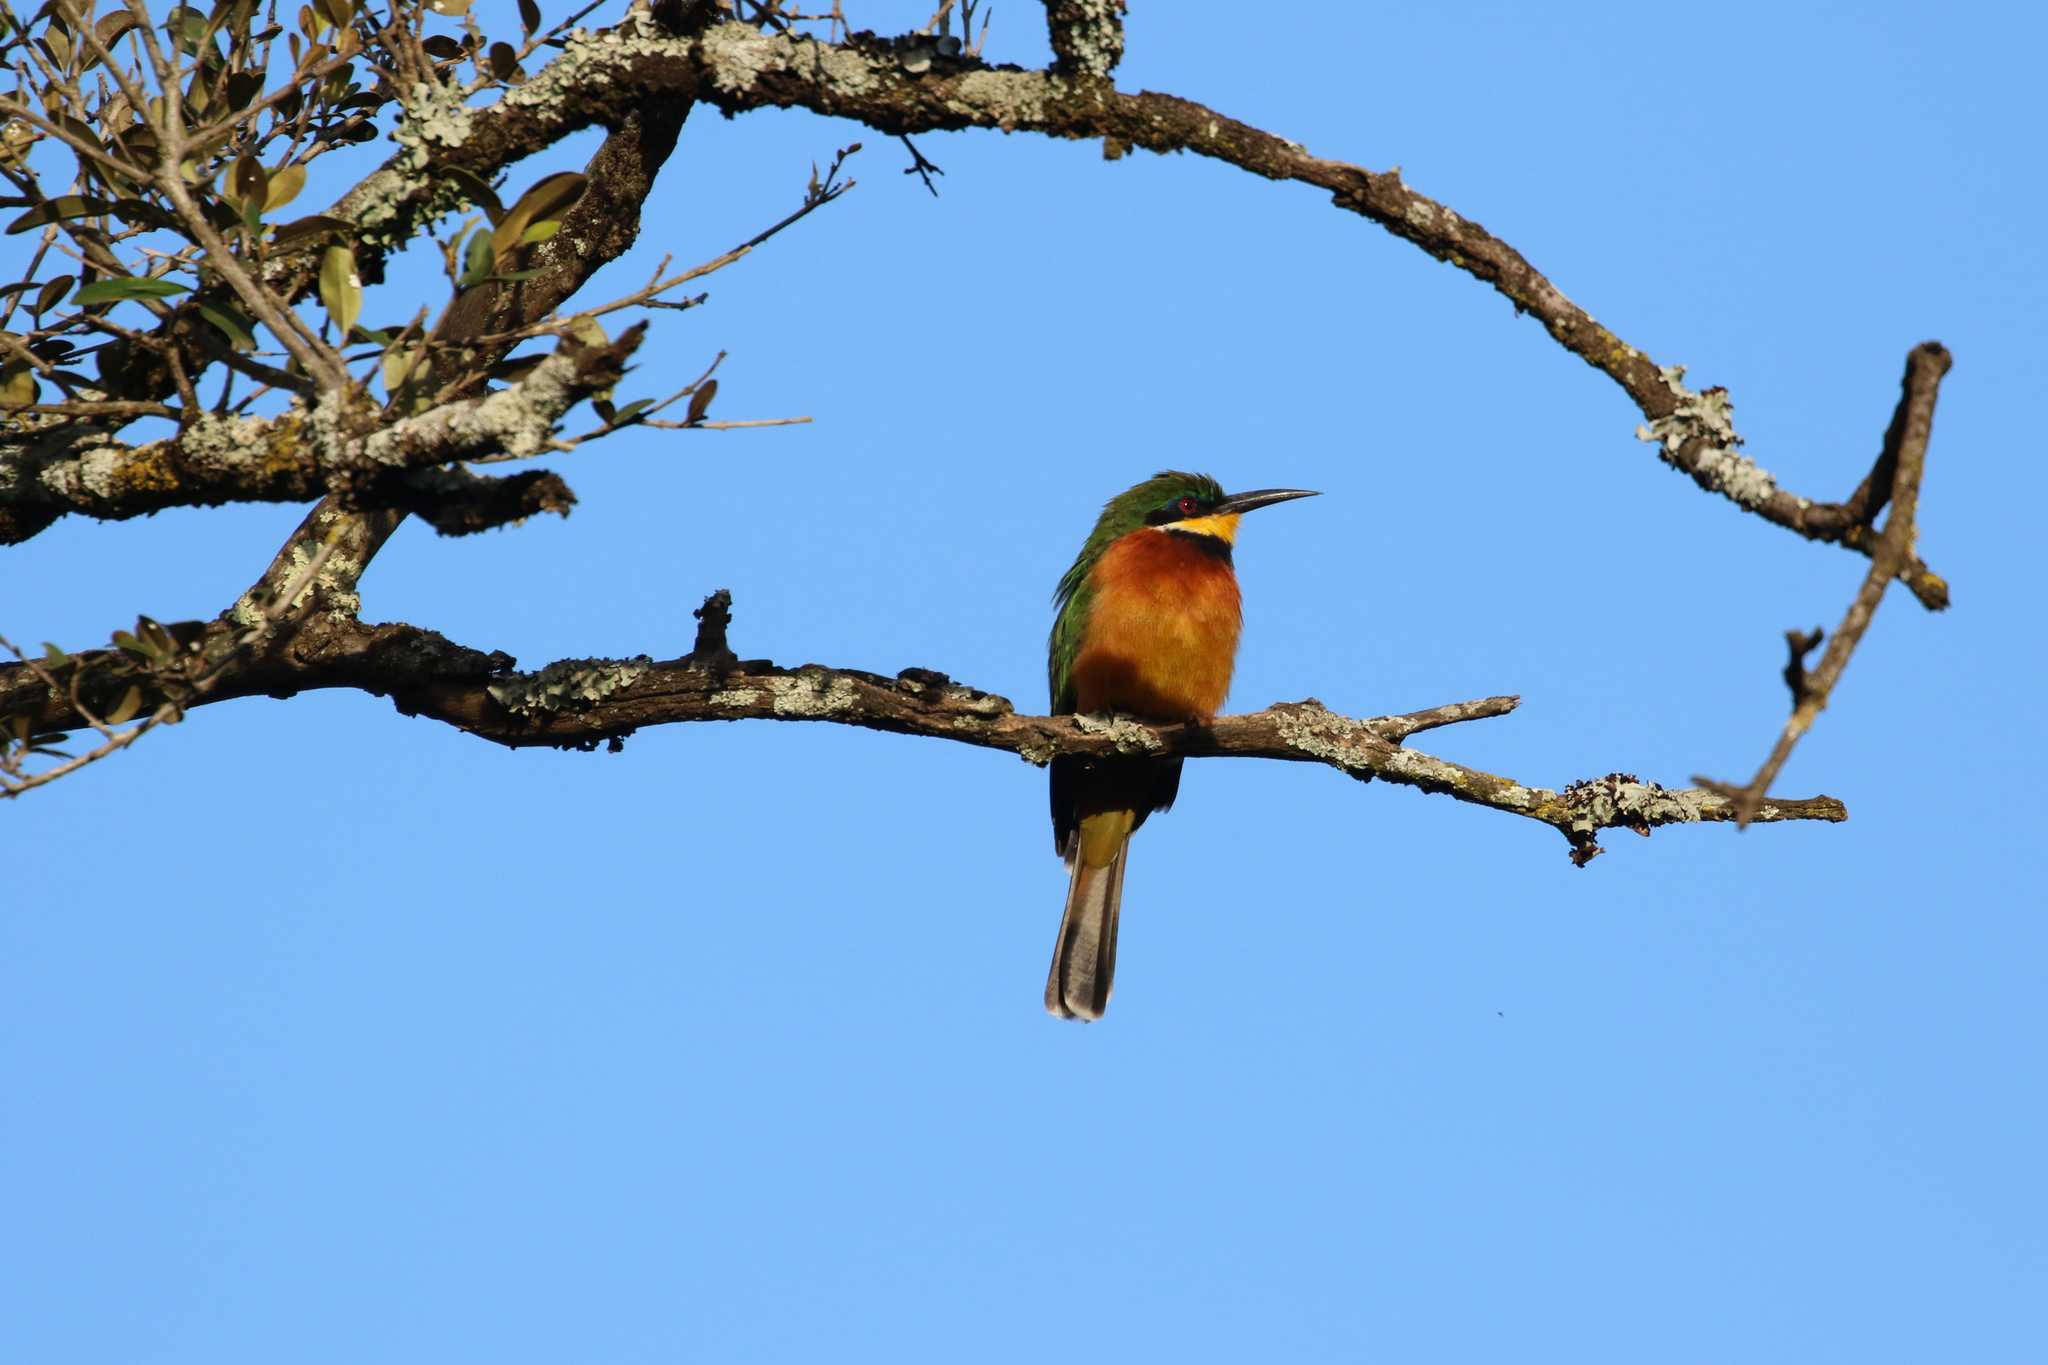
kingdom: Animalia
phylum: Chordata
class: Aves
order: Coraciiformes
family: Meropidae
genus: Merops
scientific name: Merops oreobates
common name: Cinnamon-chested bee-eater
